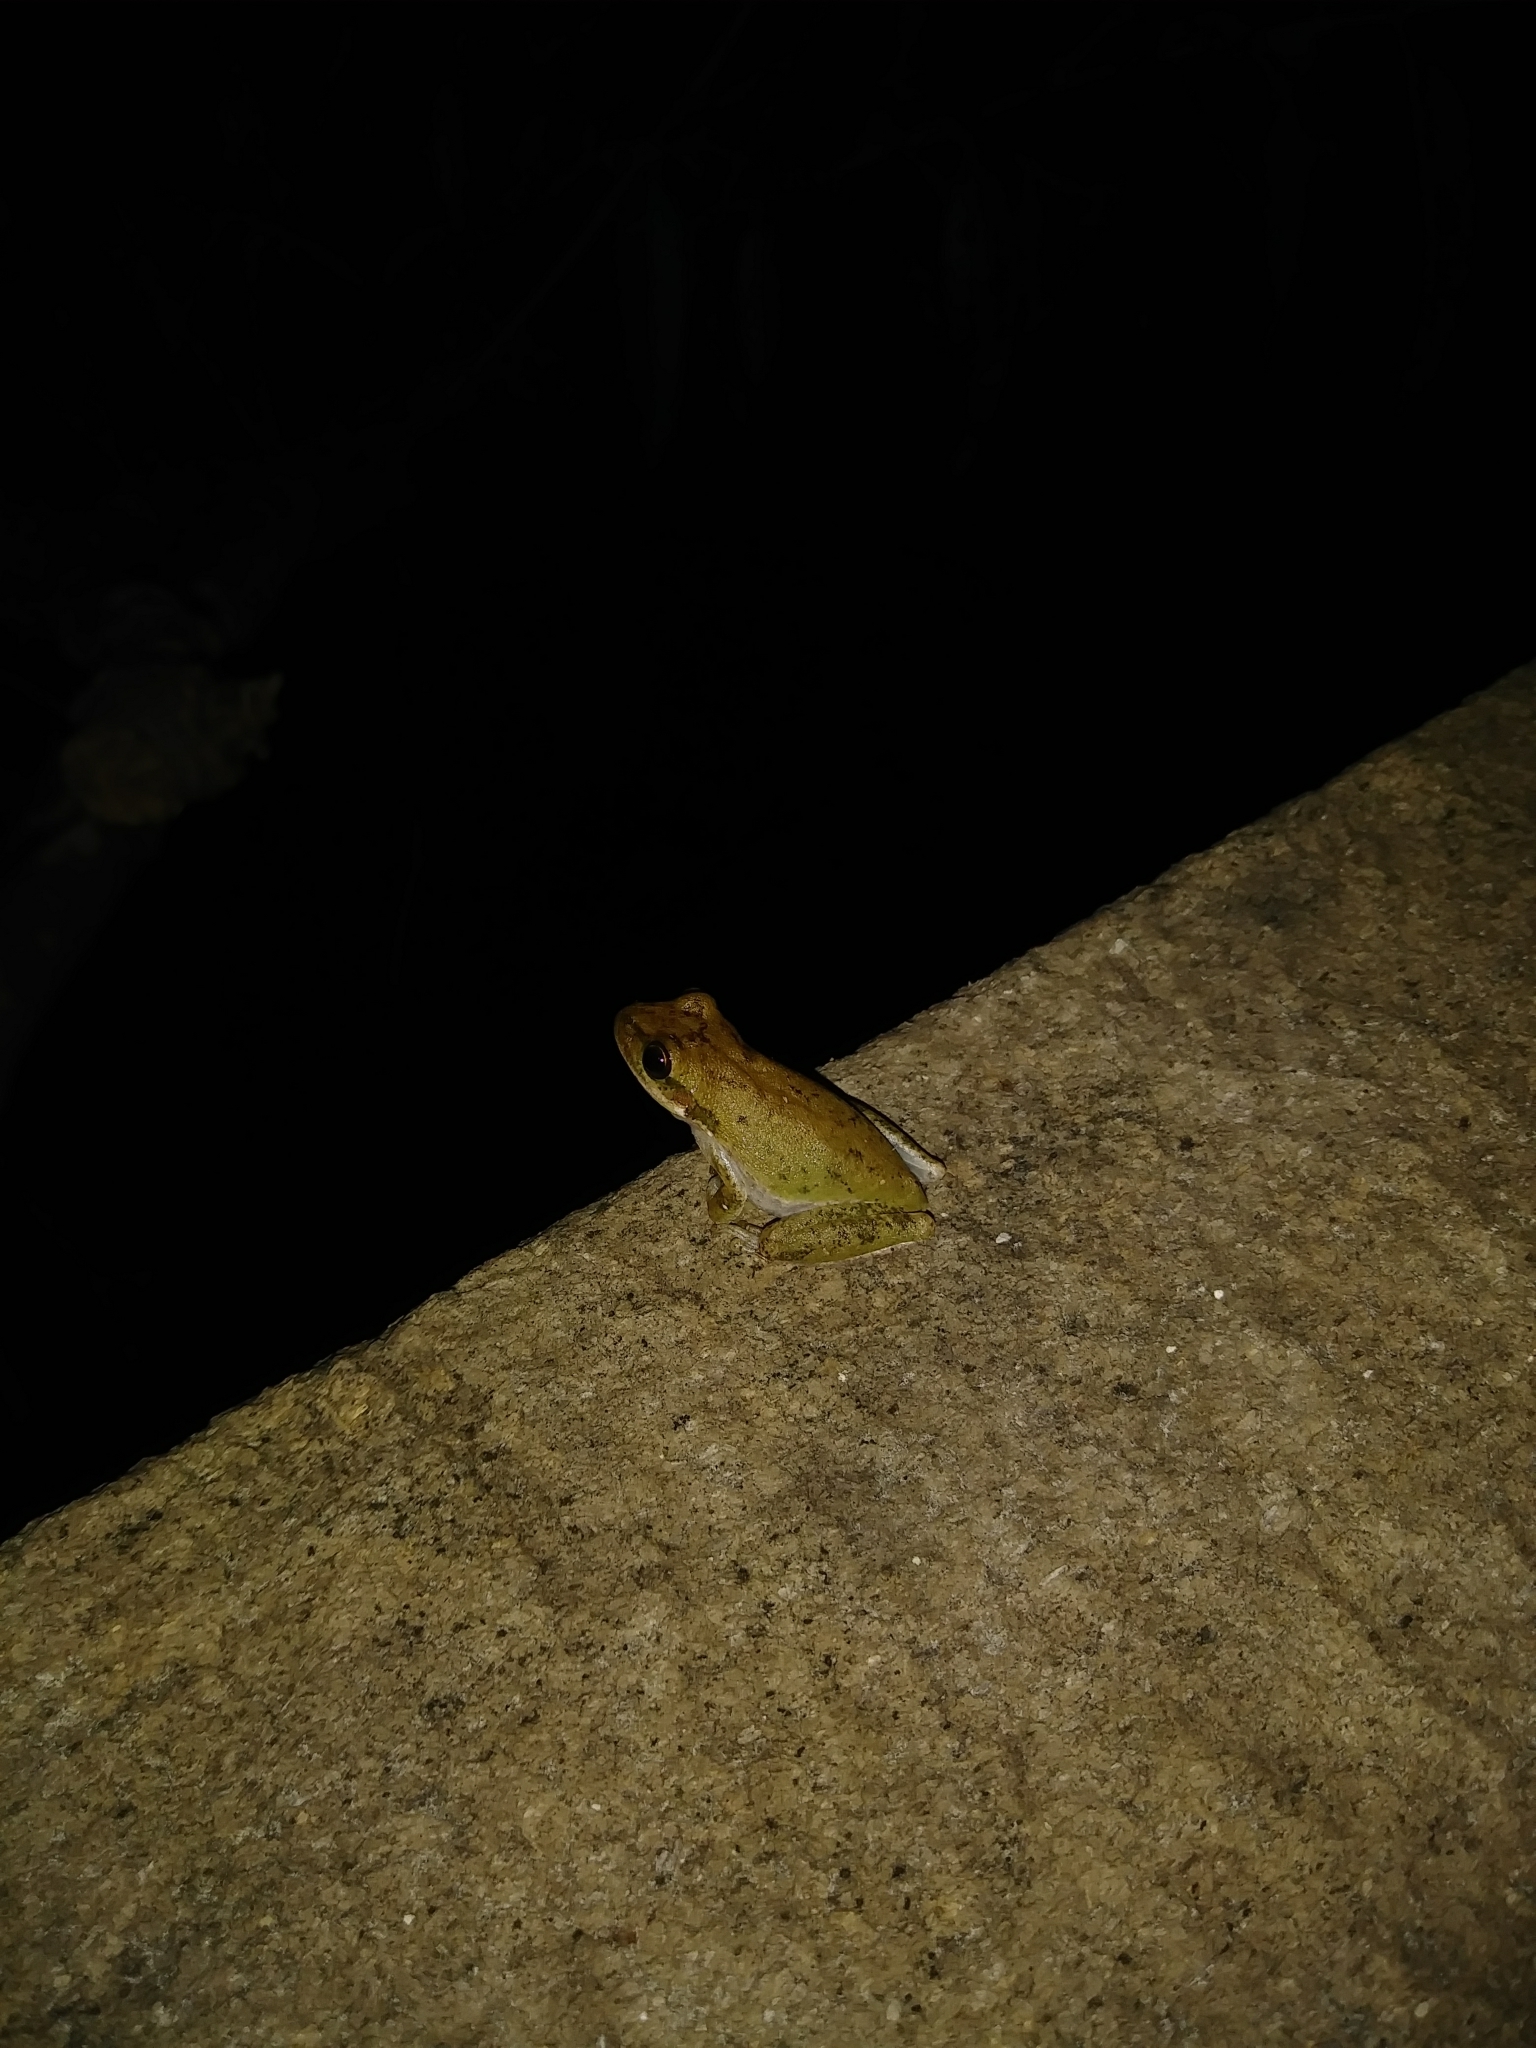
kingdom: Animalia
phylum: Chordata
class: Amphibia
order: Anura
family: Hylidae
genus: Dryophytes
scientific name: Dryophytes squirellus
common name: Squirrel treefrog
